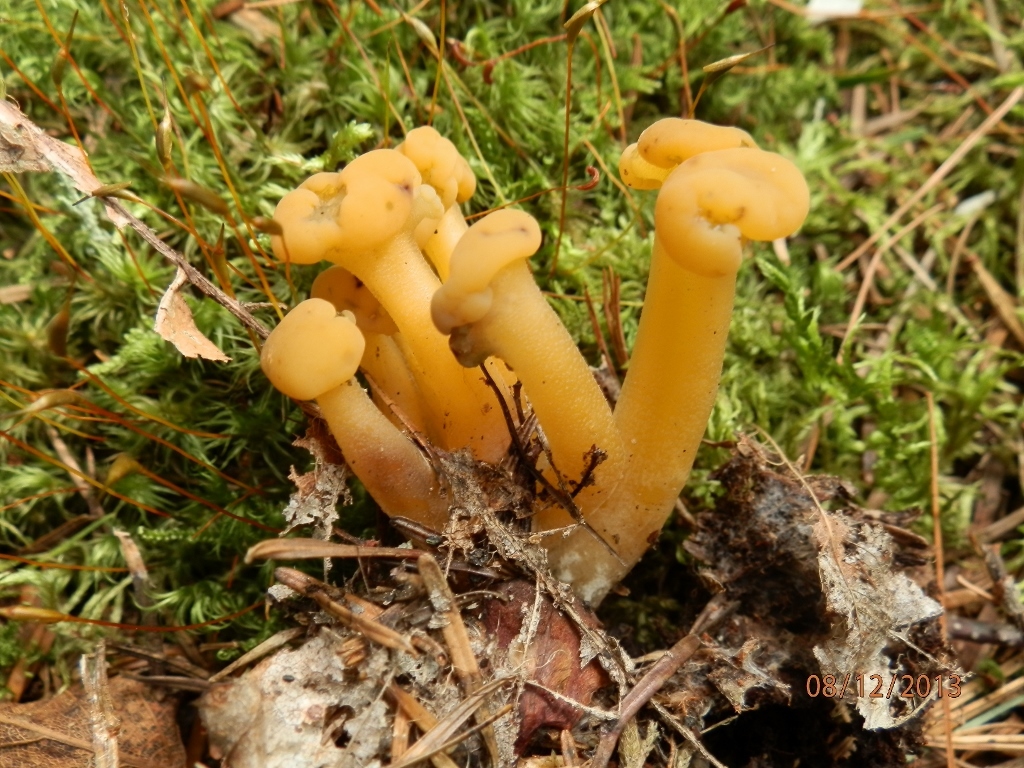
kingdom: Fungi
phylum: Ascomycota
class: Leotiomycetes
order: Leotiales
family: Leotiaceae
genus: Leotia
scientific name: Leotia lubrica
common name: Jellybaby
